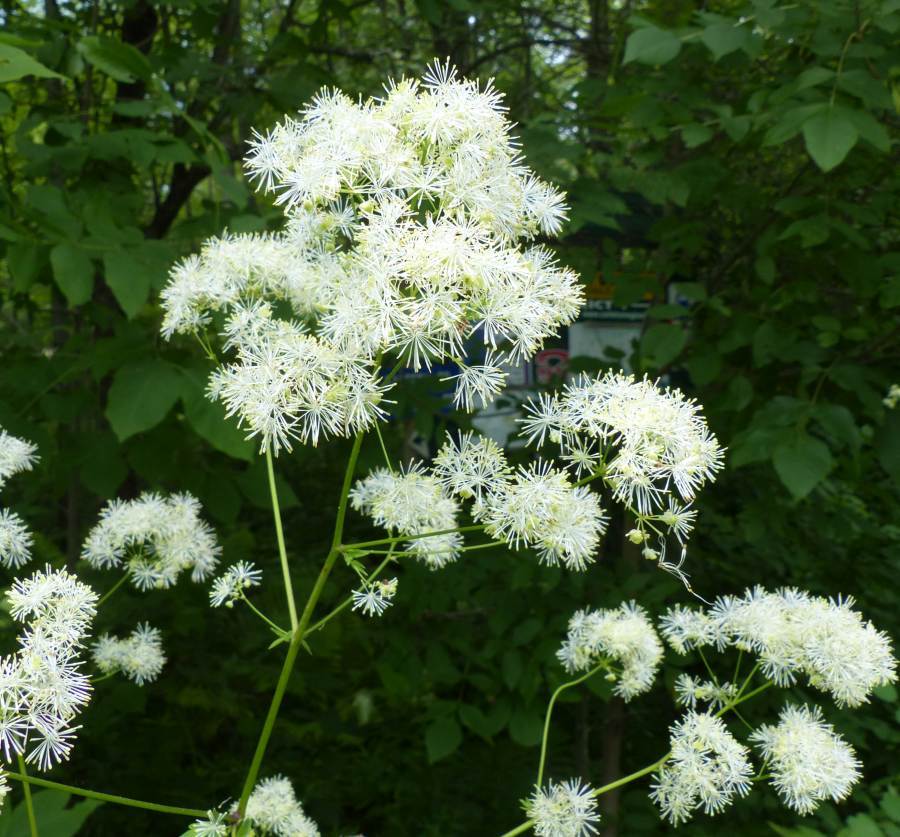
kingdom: Plantae
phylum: Tracheophyta
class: Magnoliopsida
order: Ranunculales
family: Ranunculaceae
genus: Thalictrum
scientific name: Thalictrum pubescens
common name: King-of-the-meadow
